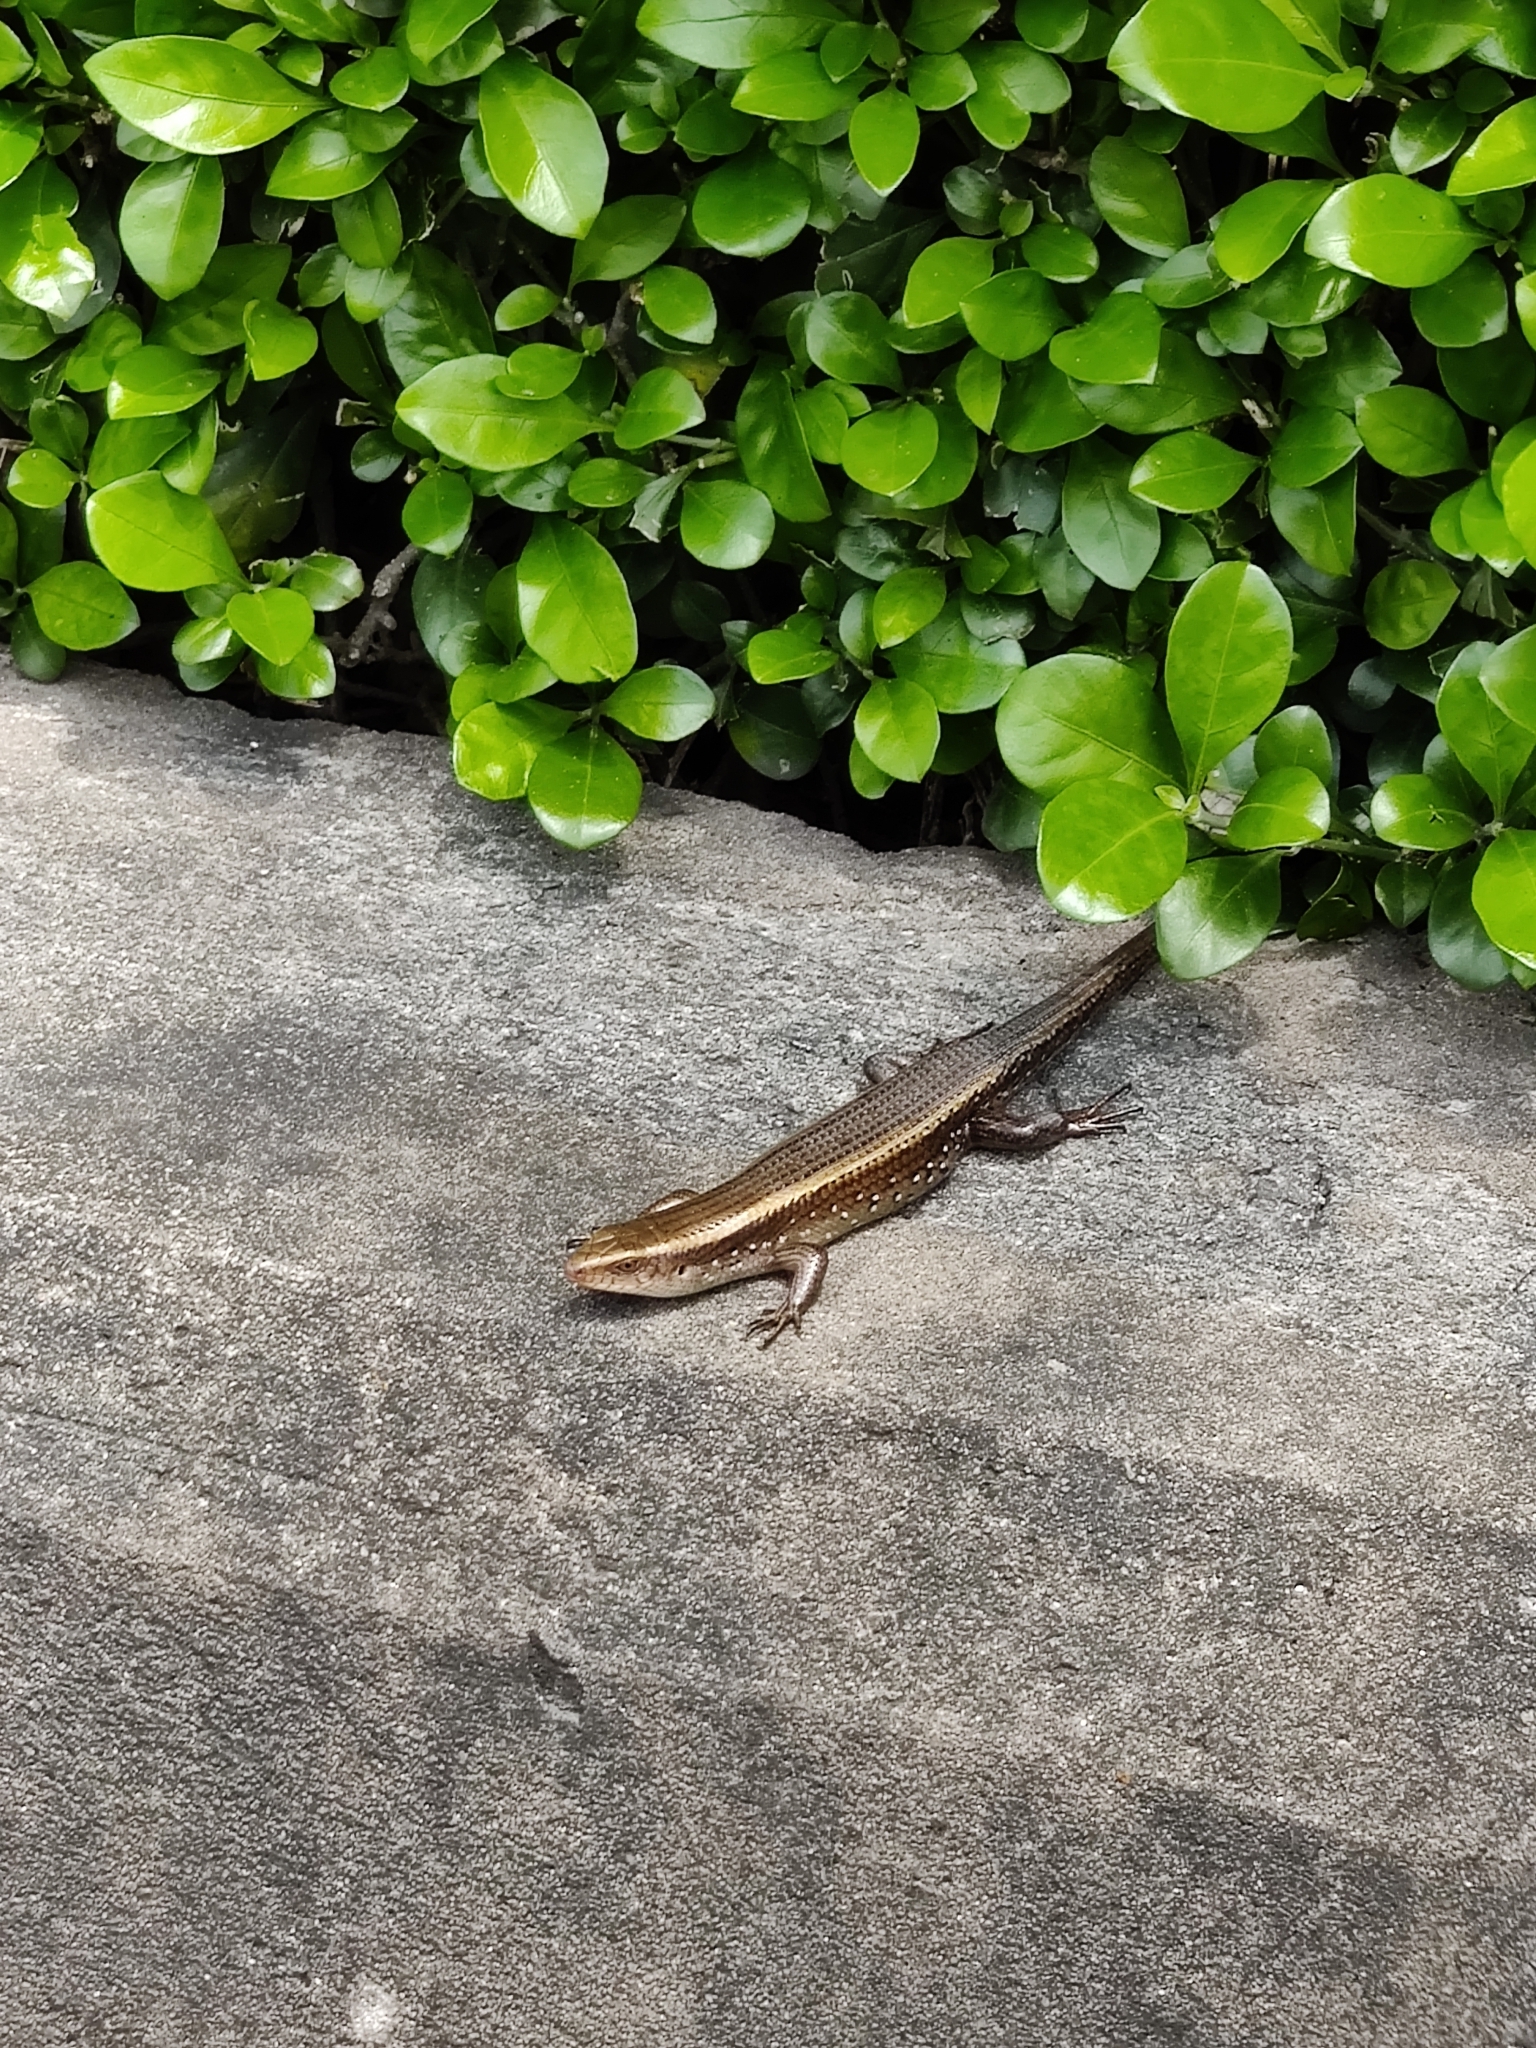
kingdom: Animalia
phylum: Chordata
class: Squamata
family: Scincidae
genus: Eutropis
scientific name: Eutropis multifasciata
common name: Common mabuya
